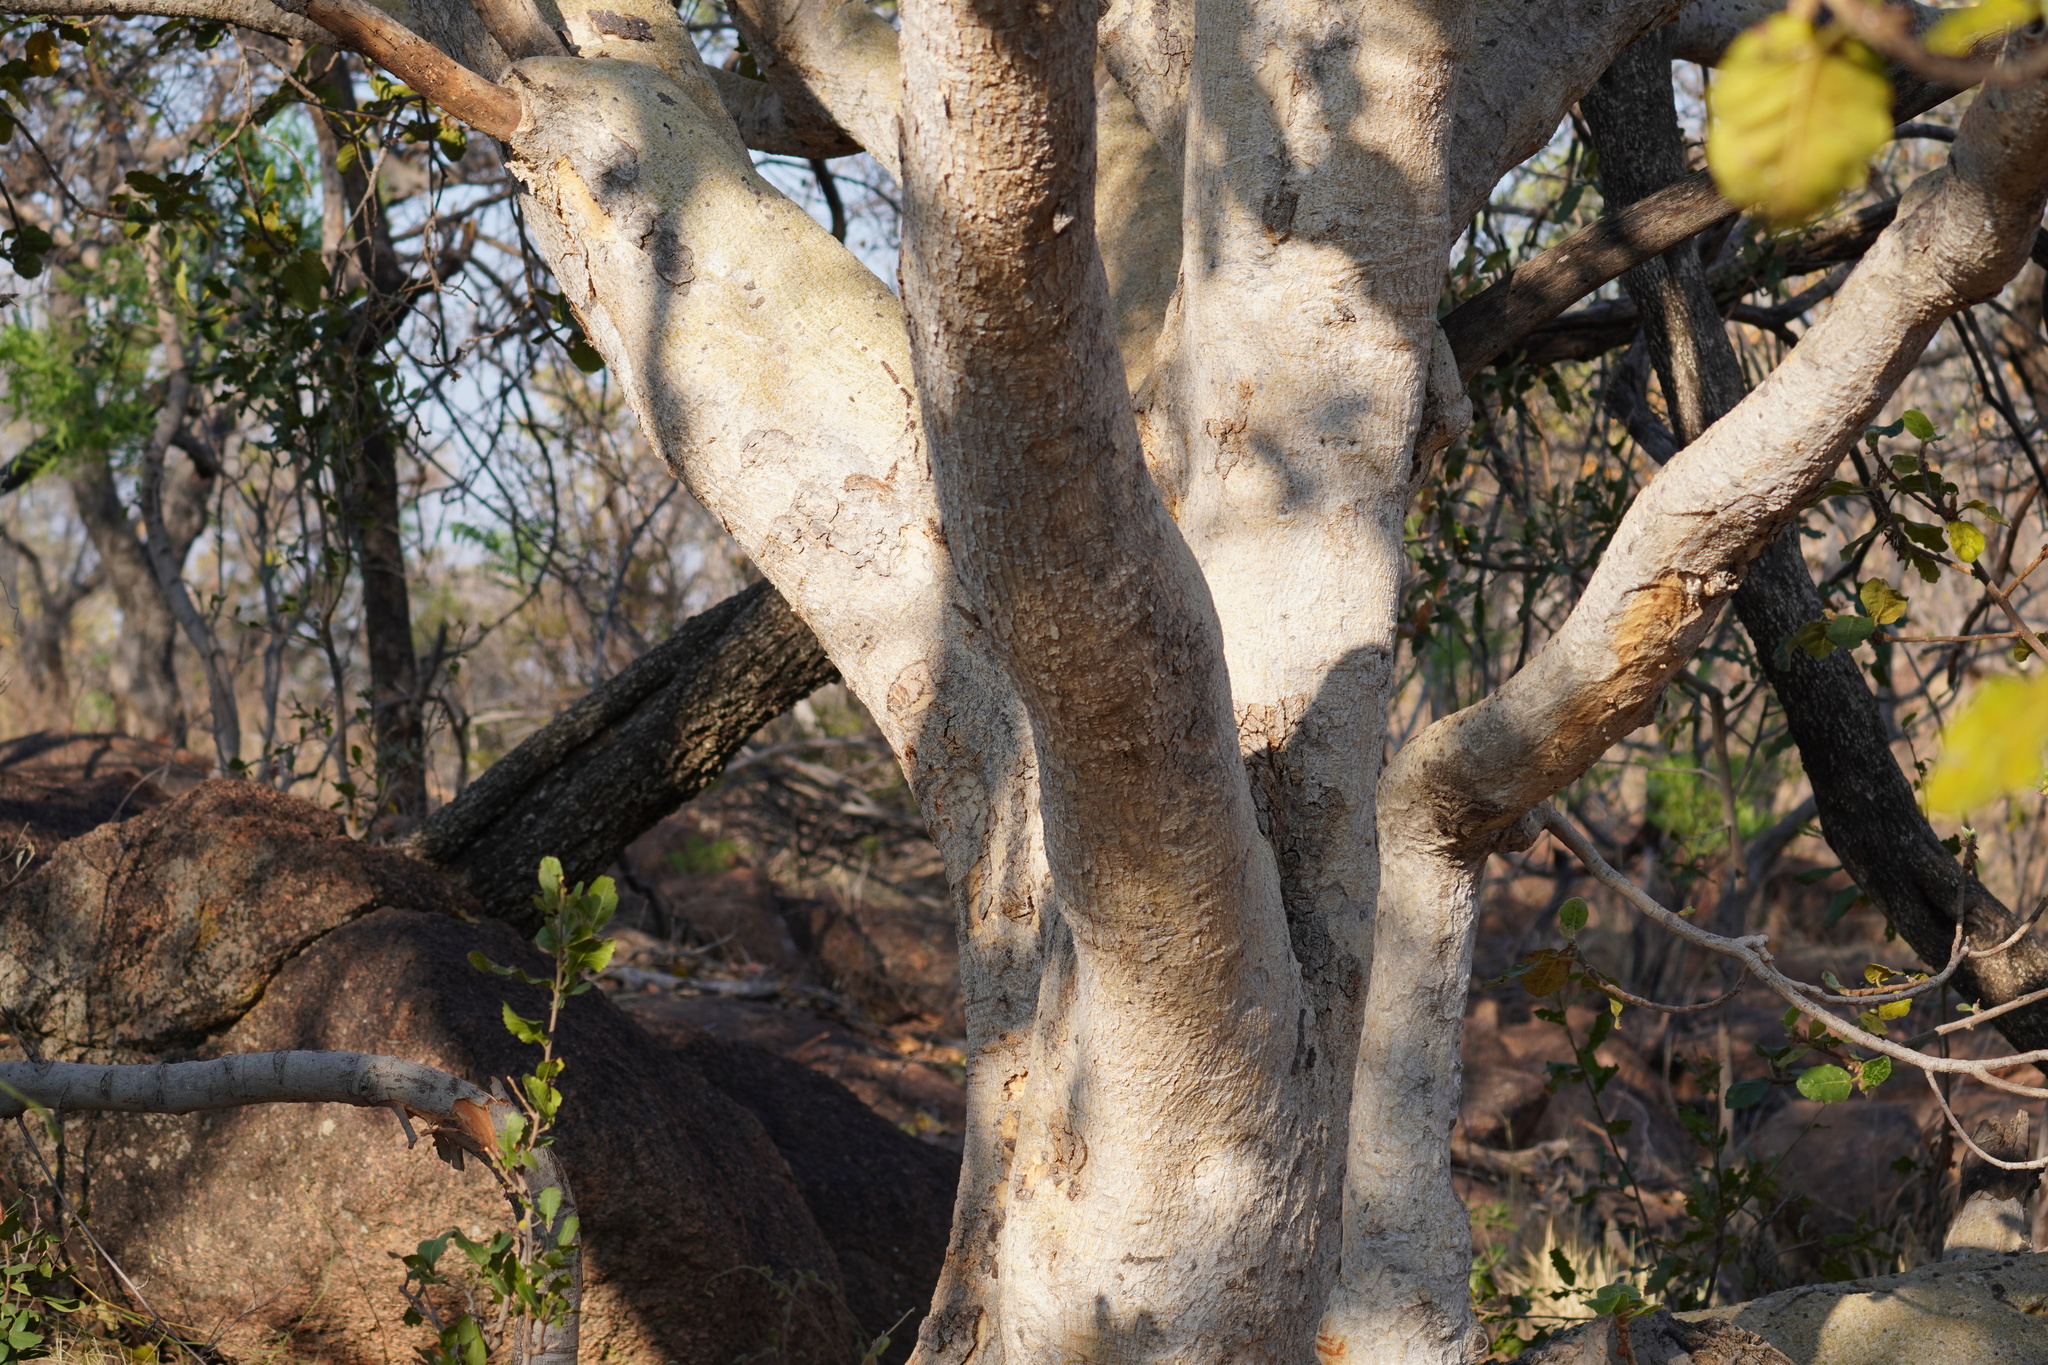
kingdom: Plantae
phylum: Tracheophyta
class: Magnoliopsida
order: Rosales
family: Moraceae
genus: Ficus
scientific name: Ficus glumosa
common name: Hairy rock fig
